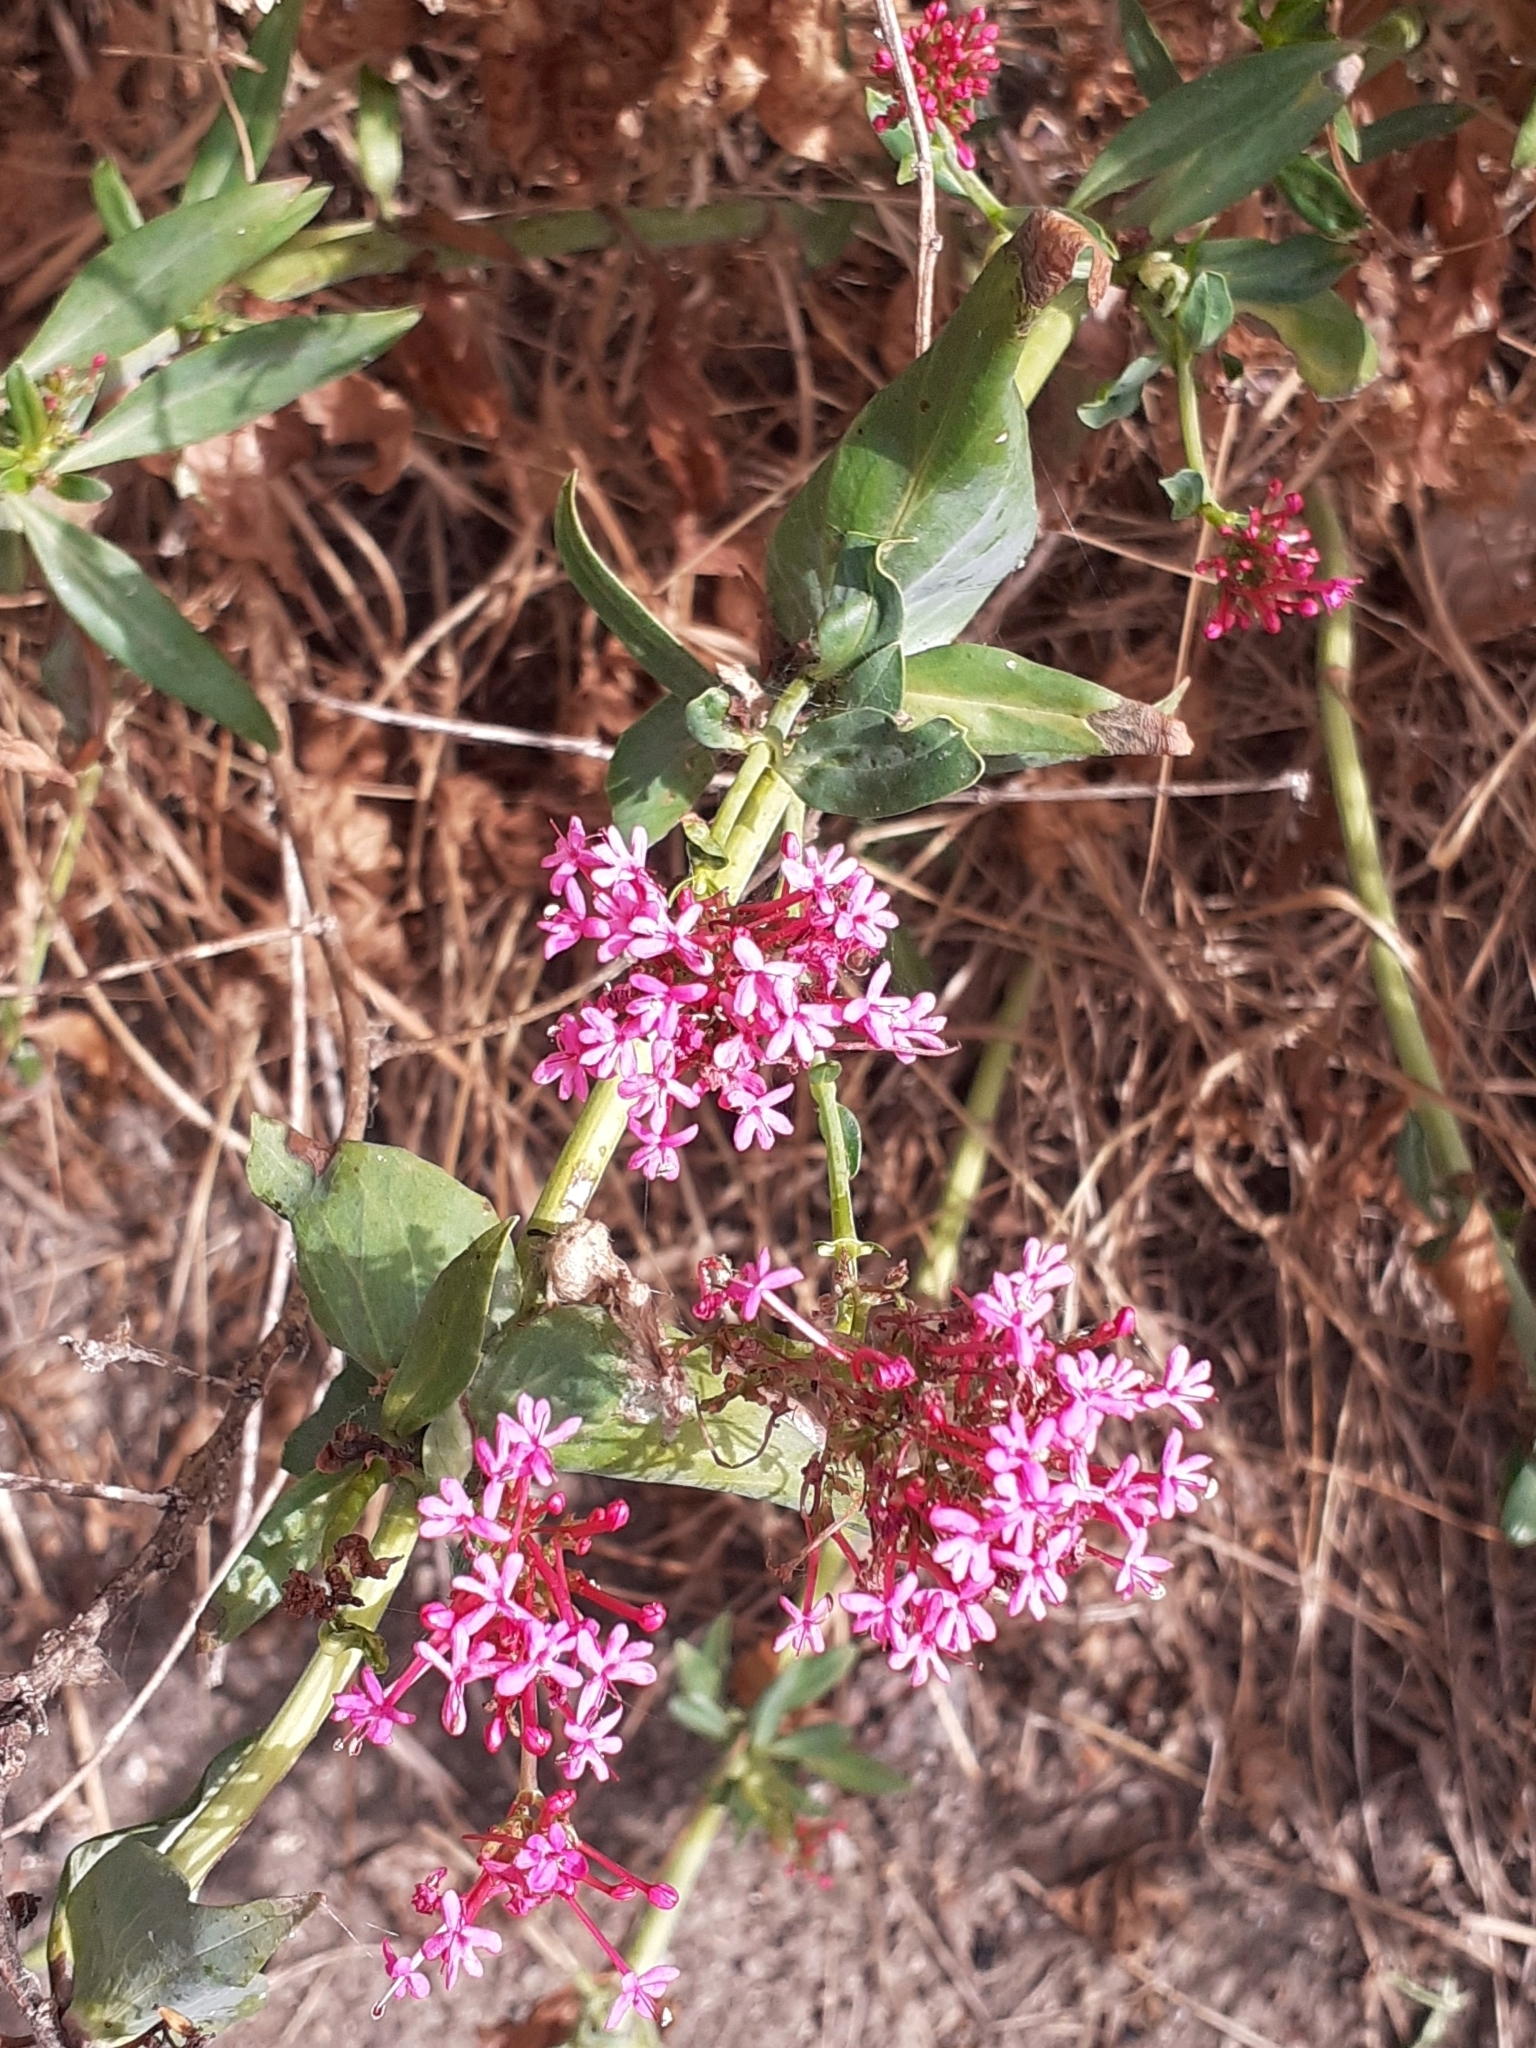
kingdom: Plantae
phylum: Tracheophyta
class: Magnoliopsida
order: Dipsacales
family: Caprifoliaceae
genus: Centranthus
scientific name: Centranthus ruber
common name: Red valerian
